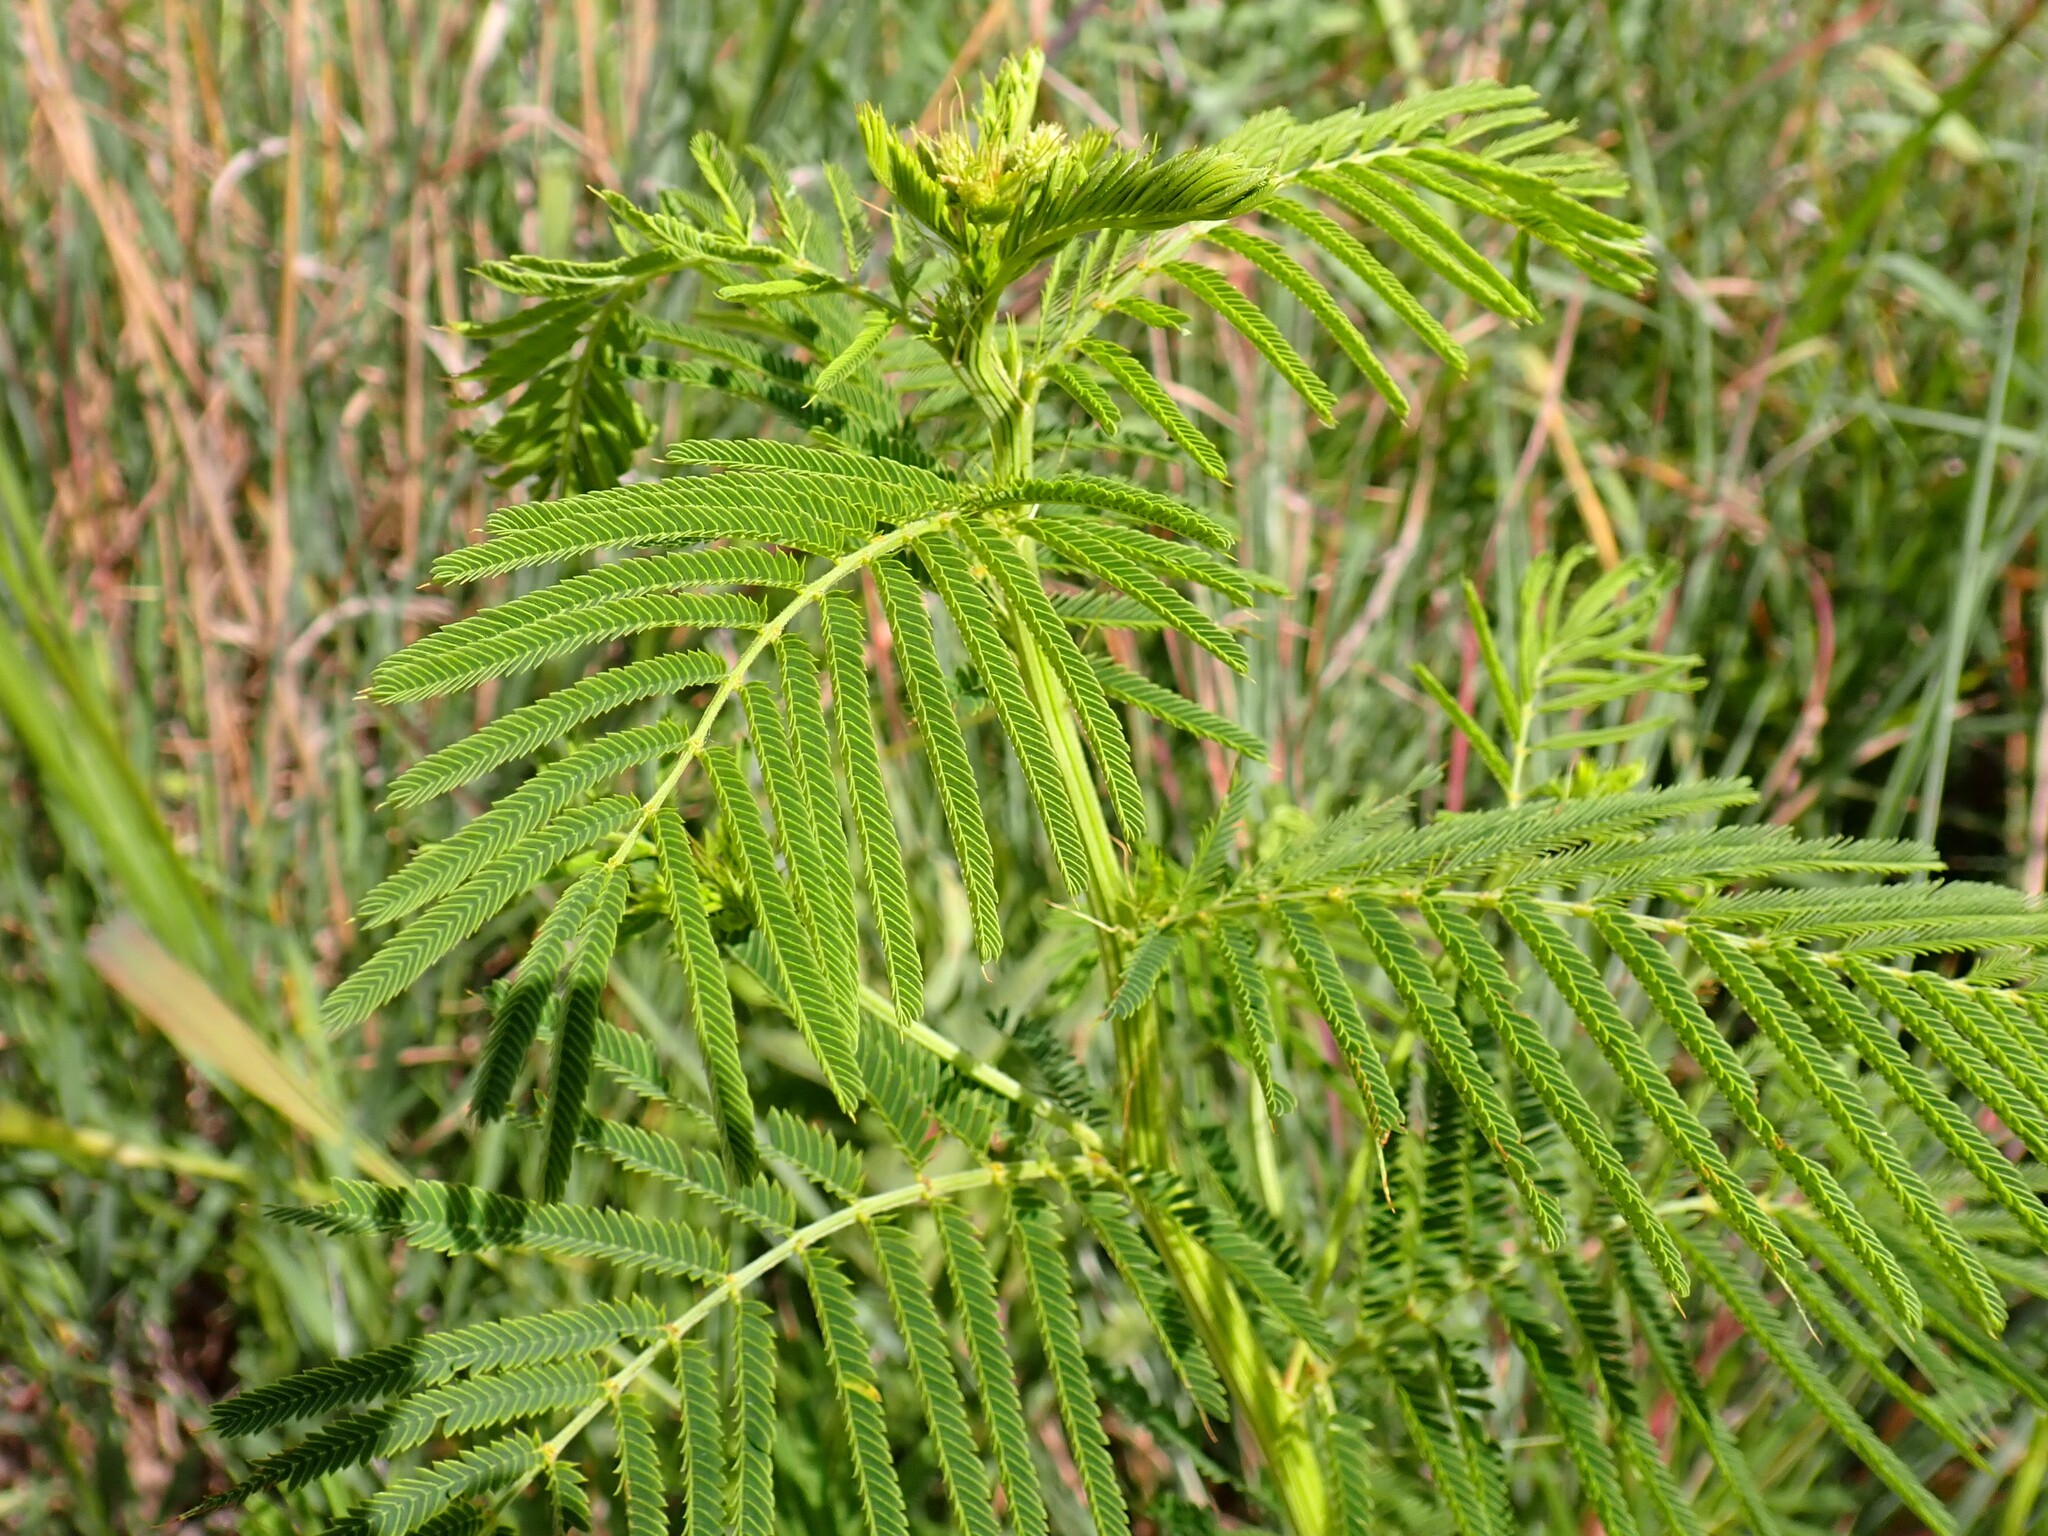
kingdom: Plantae
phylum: Tracheophyta
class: Magnoliopsida
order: Fabales
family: Fabaceae
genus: Desmanthus
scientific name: Desmanthus illinoensis
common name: Illinois bundle-flower
